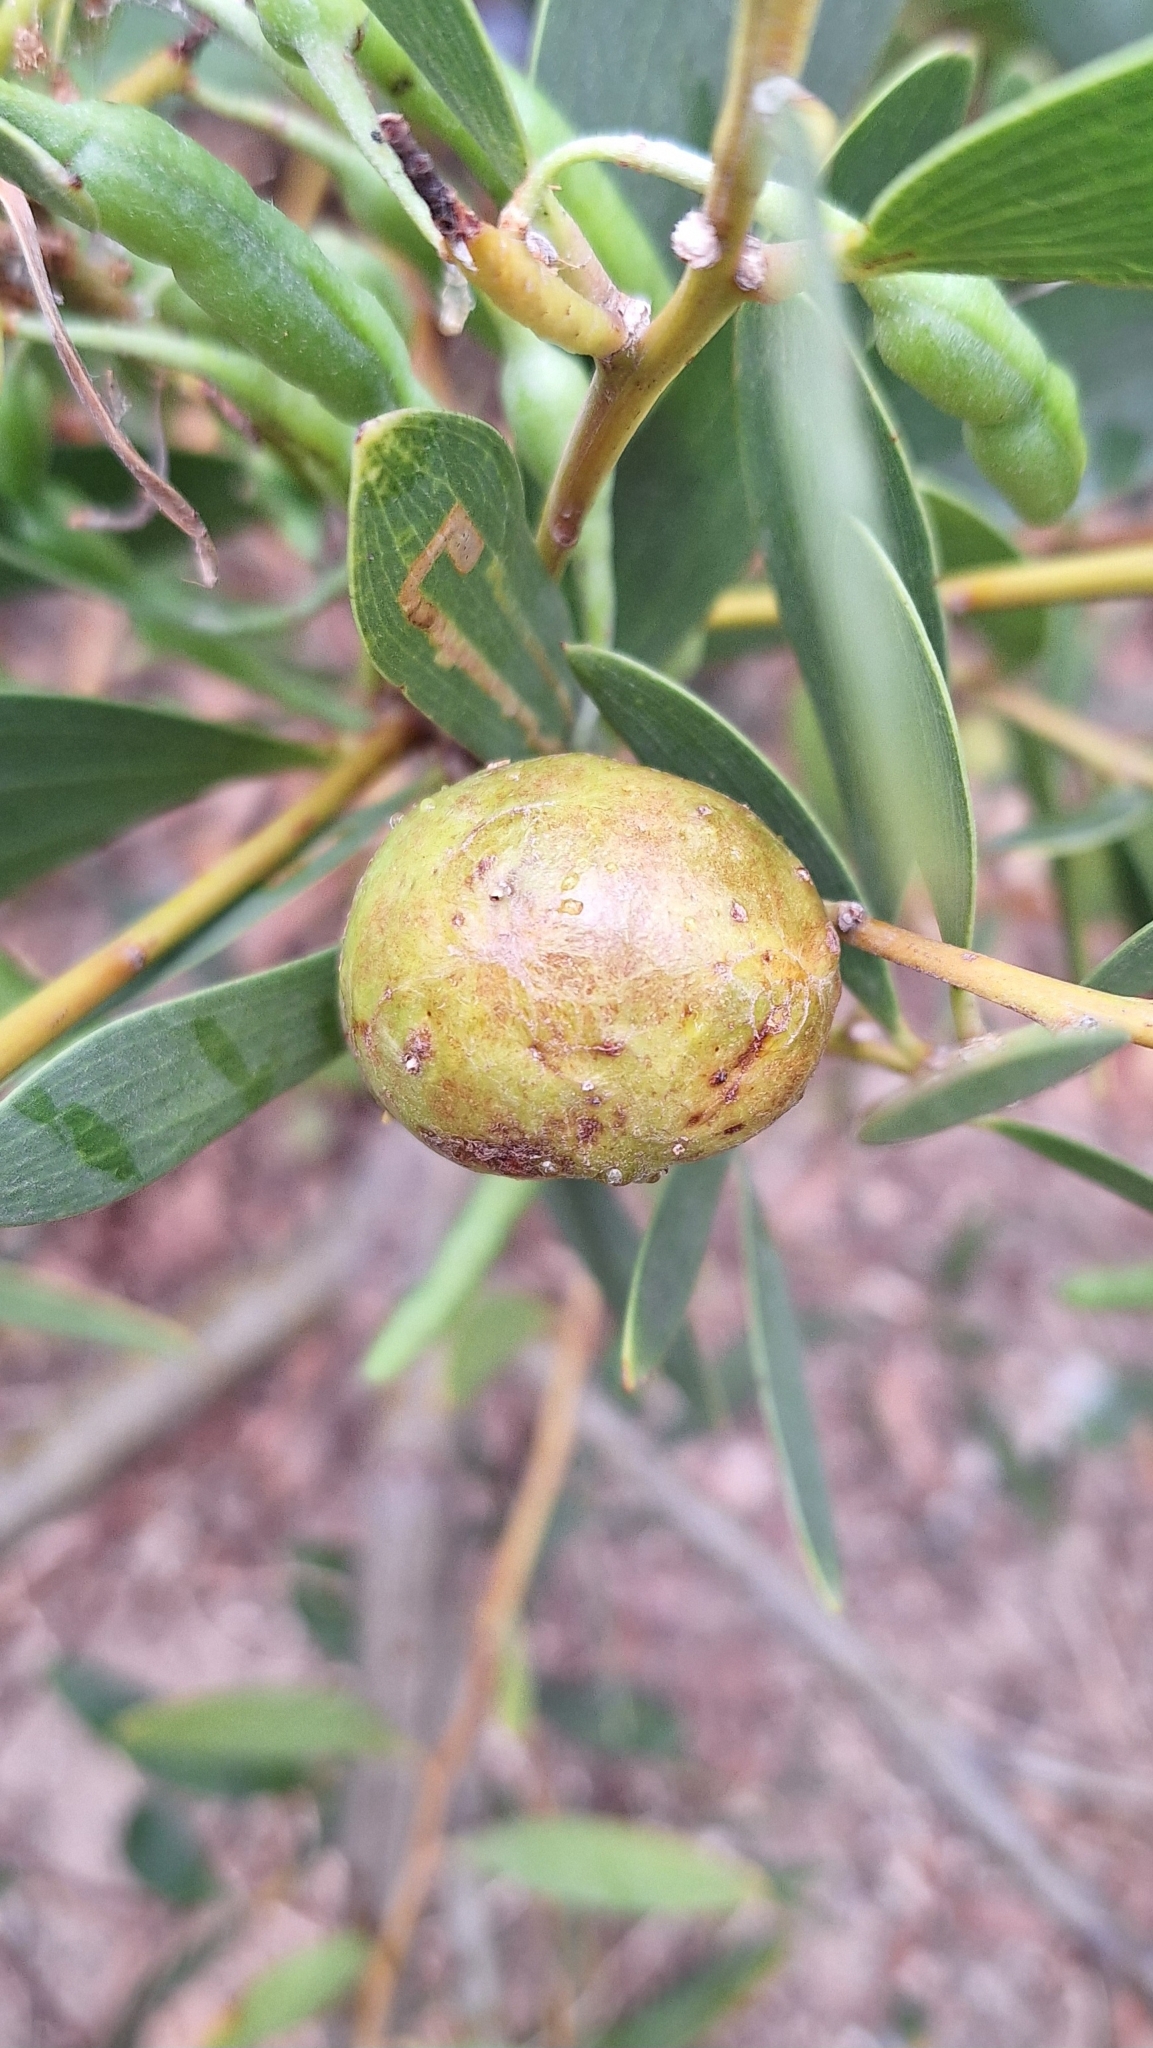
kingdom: Animalia
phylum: Arthropoda
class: Insecta
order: Hymenoptera
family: Pteromalidae
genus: Trichilogaster
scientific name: Trichilogaster acaciaelongifoliae
